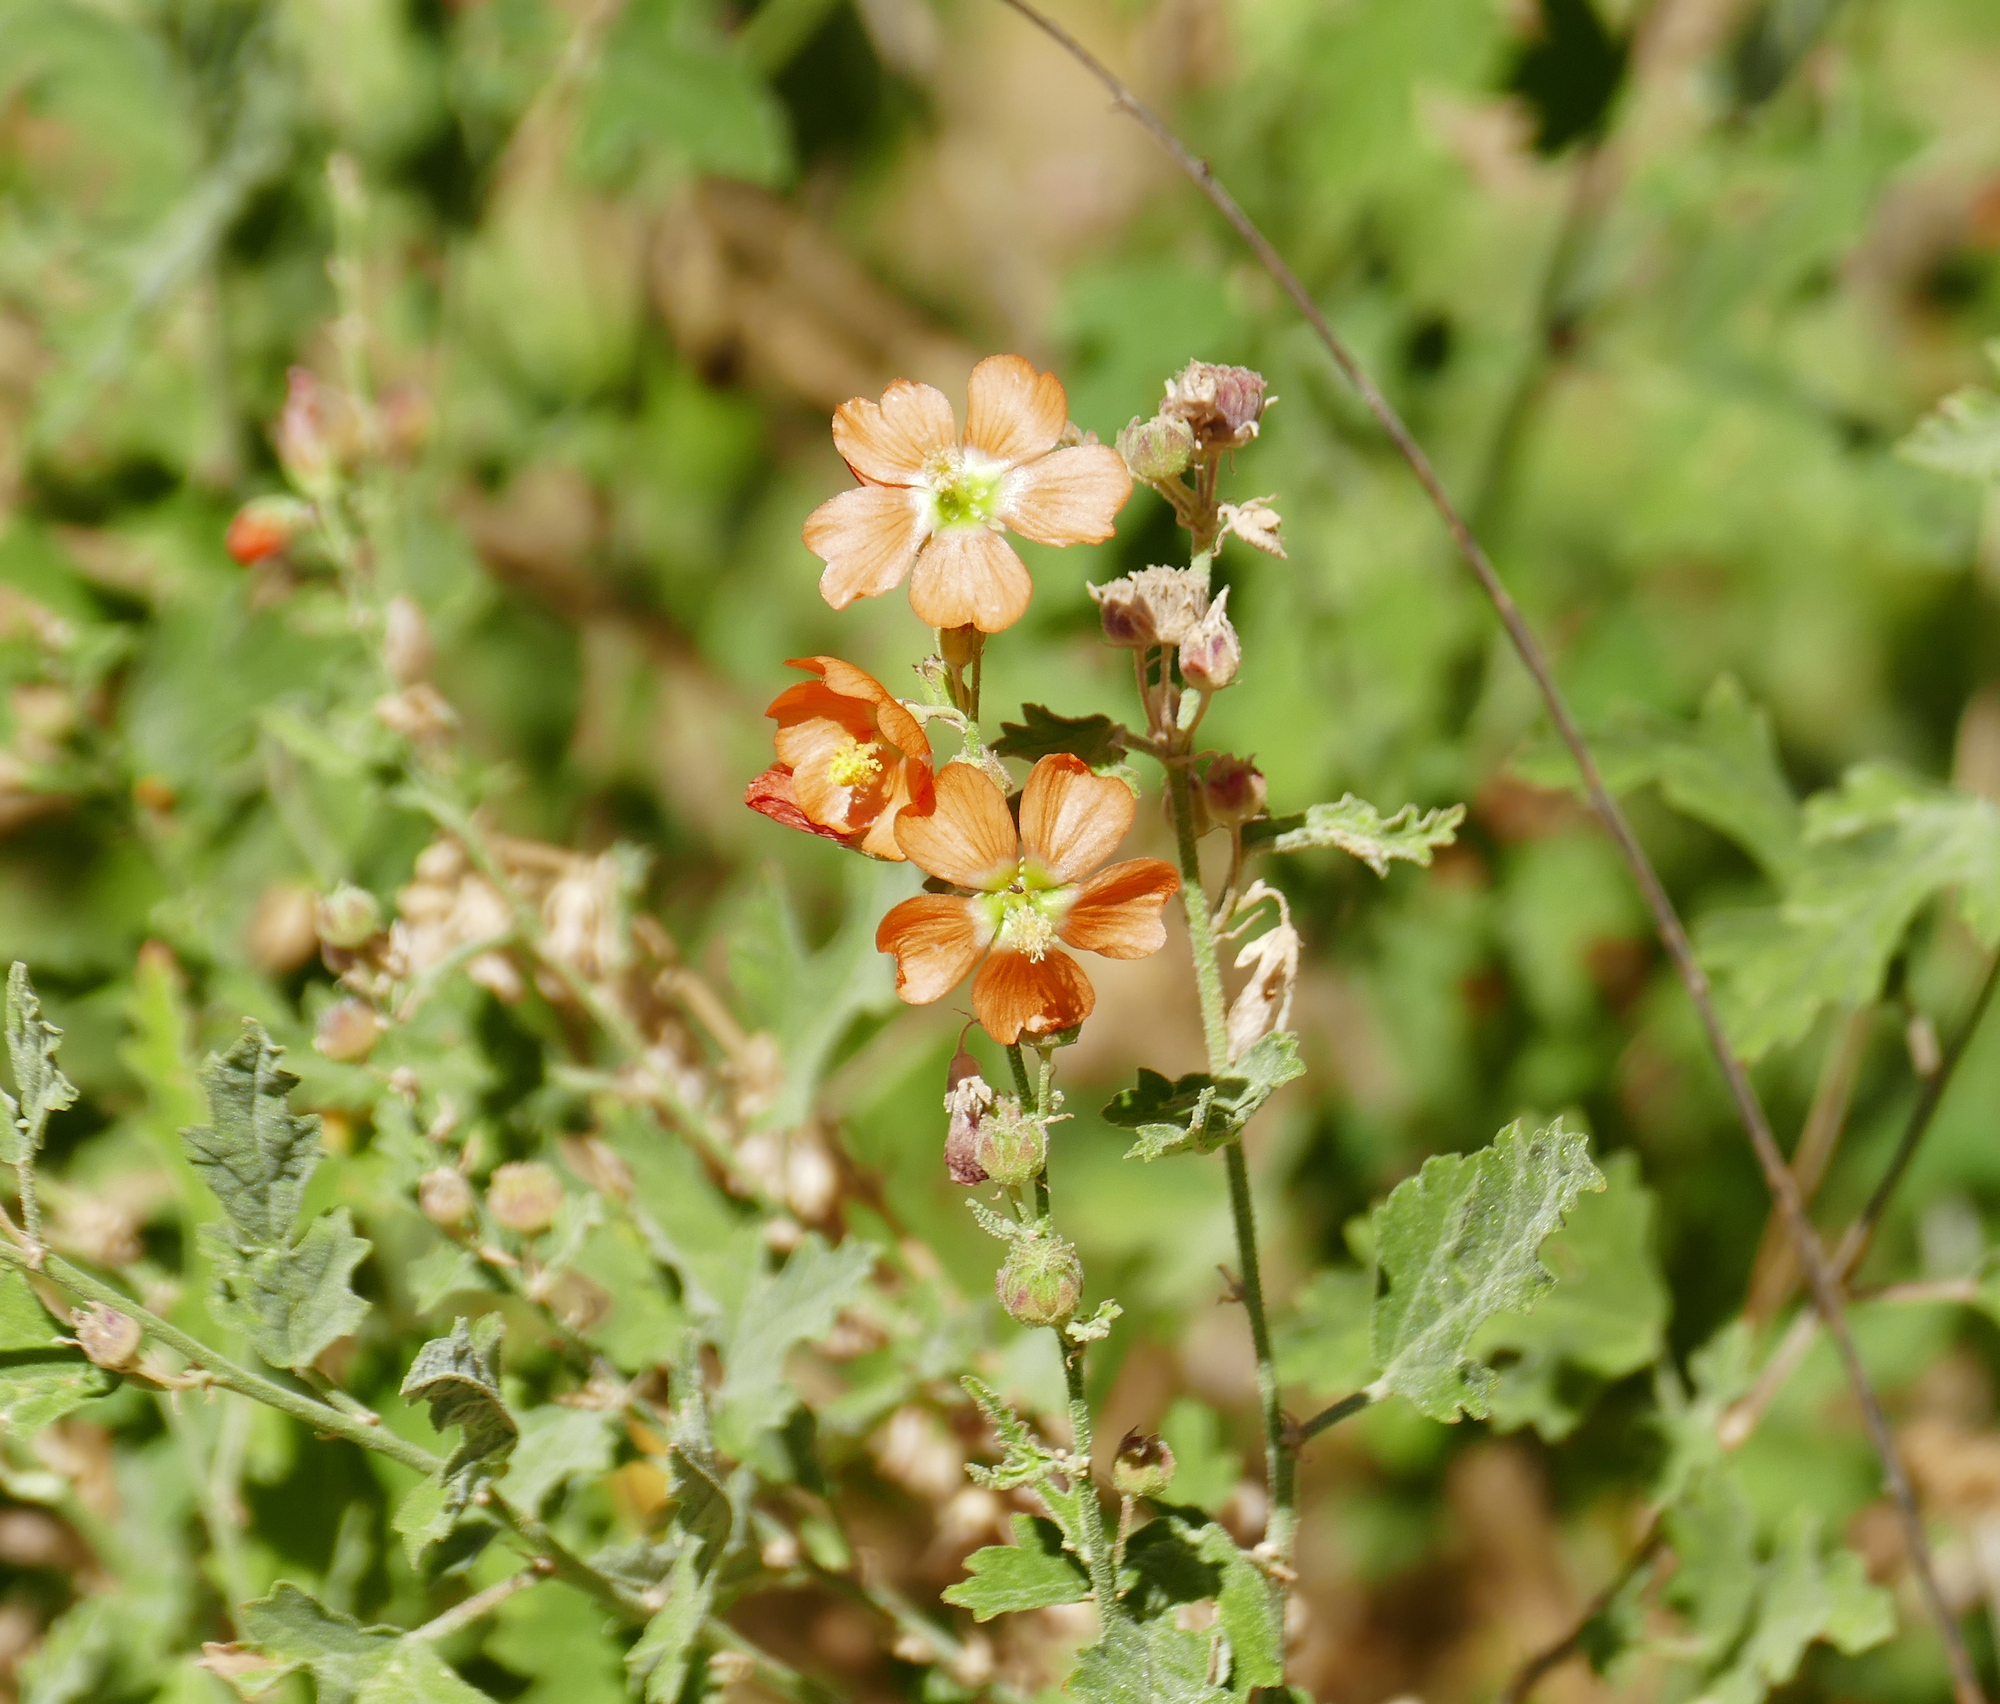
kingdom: Plantae
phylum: Tracheophyta
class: Magnoliopsida
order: Malvales
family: Malvaceae
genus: Sphaeralcea
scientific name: Sphaeralcea fendleri
